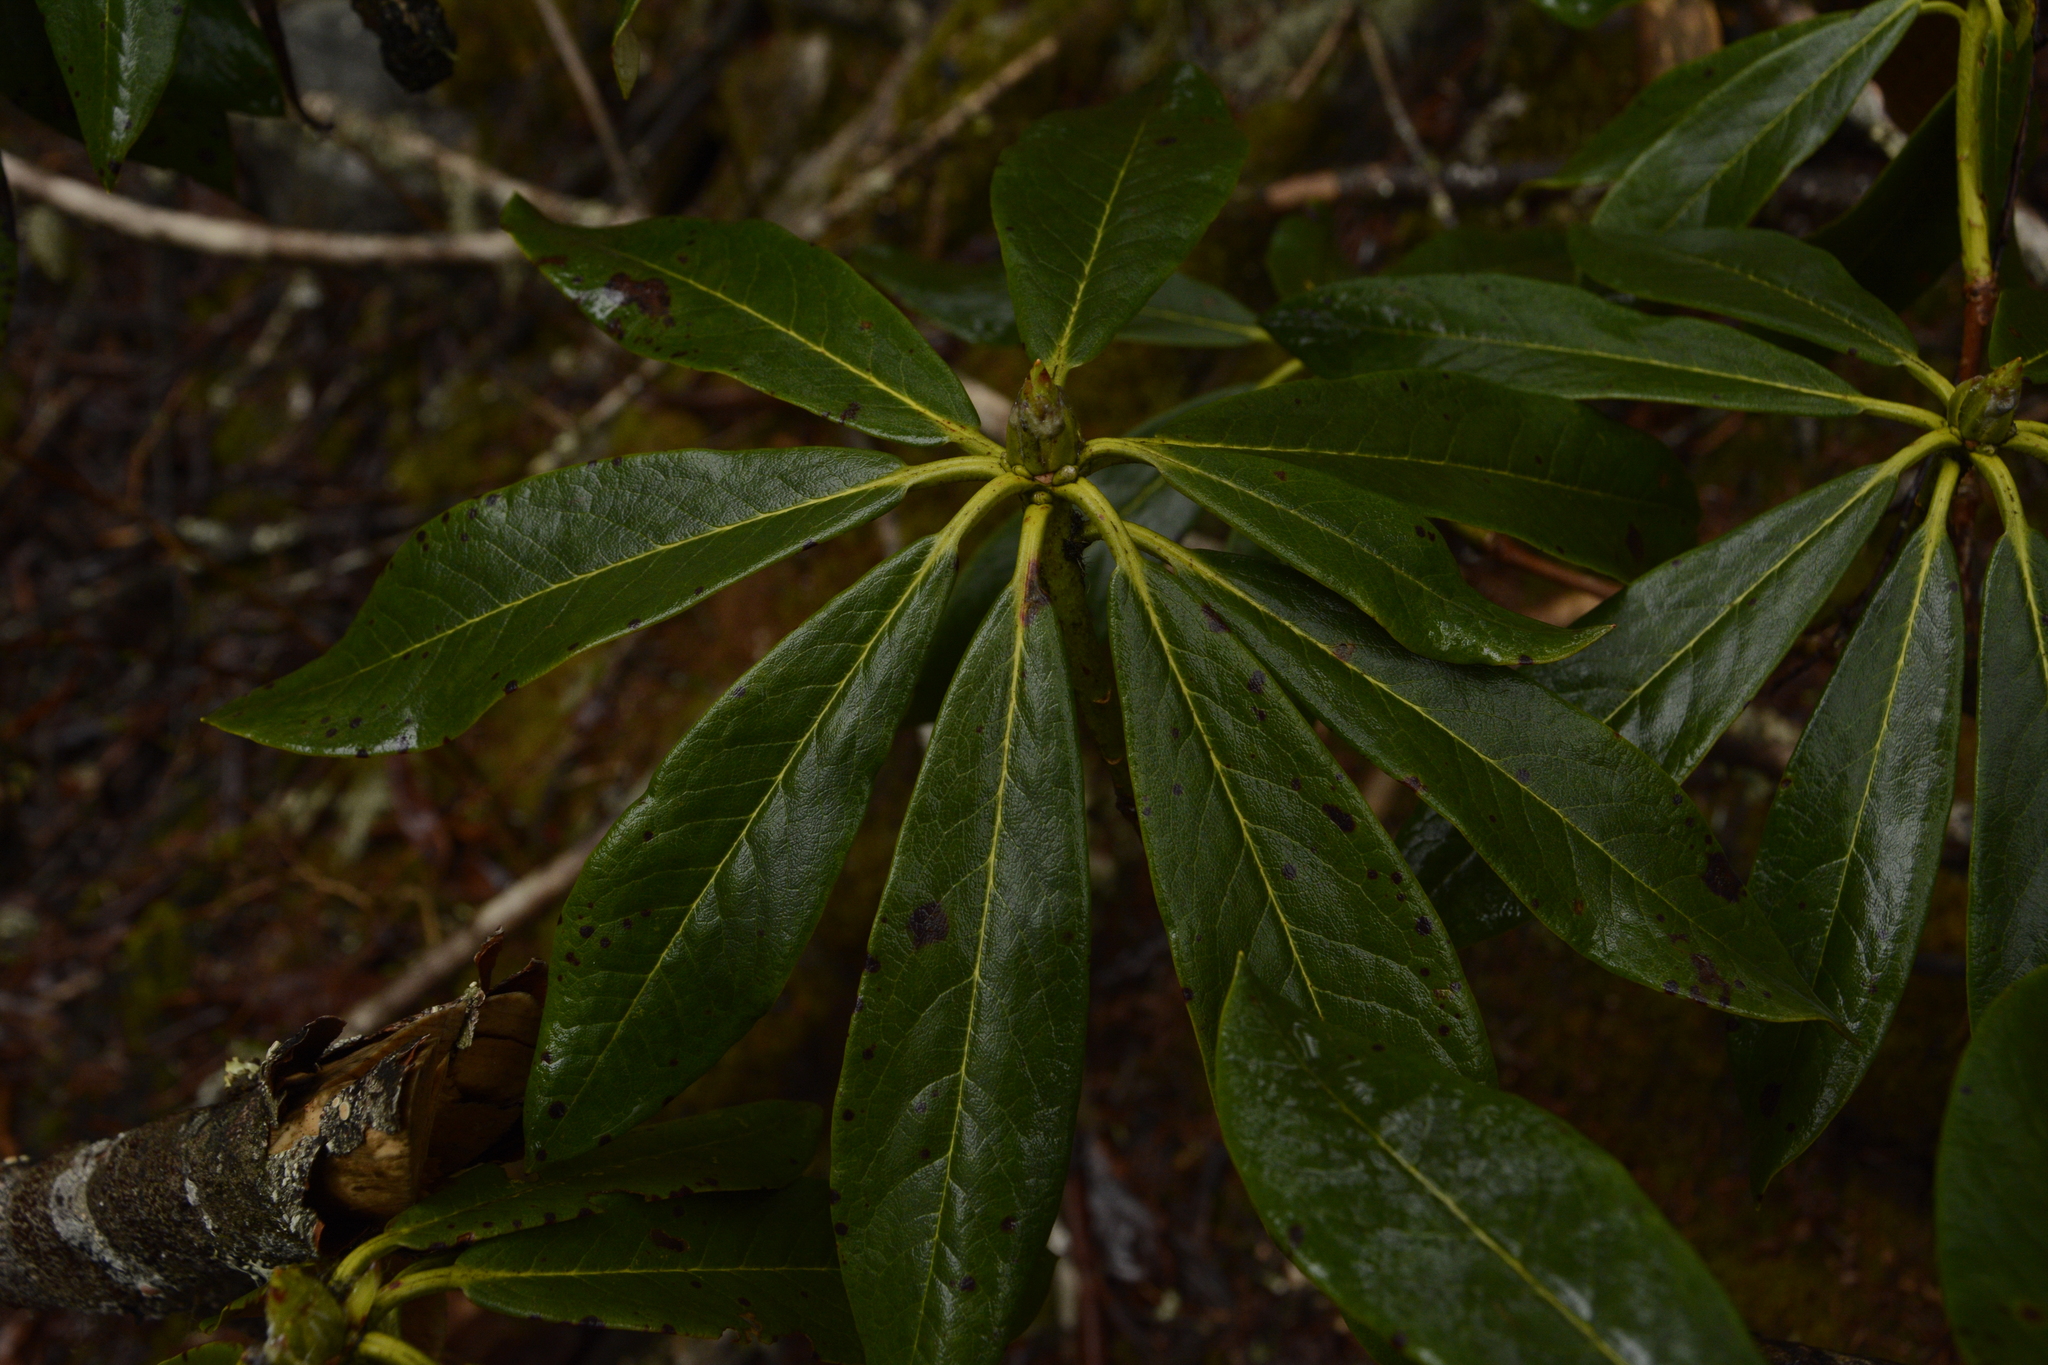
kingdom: Plantae
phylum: Tracheophyta
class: Magnoliopsida
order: Ericales
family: Ericaceae
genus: Rhododendron
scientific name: Rhododendron wightii
